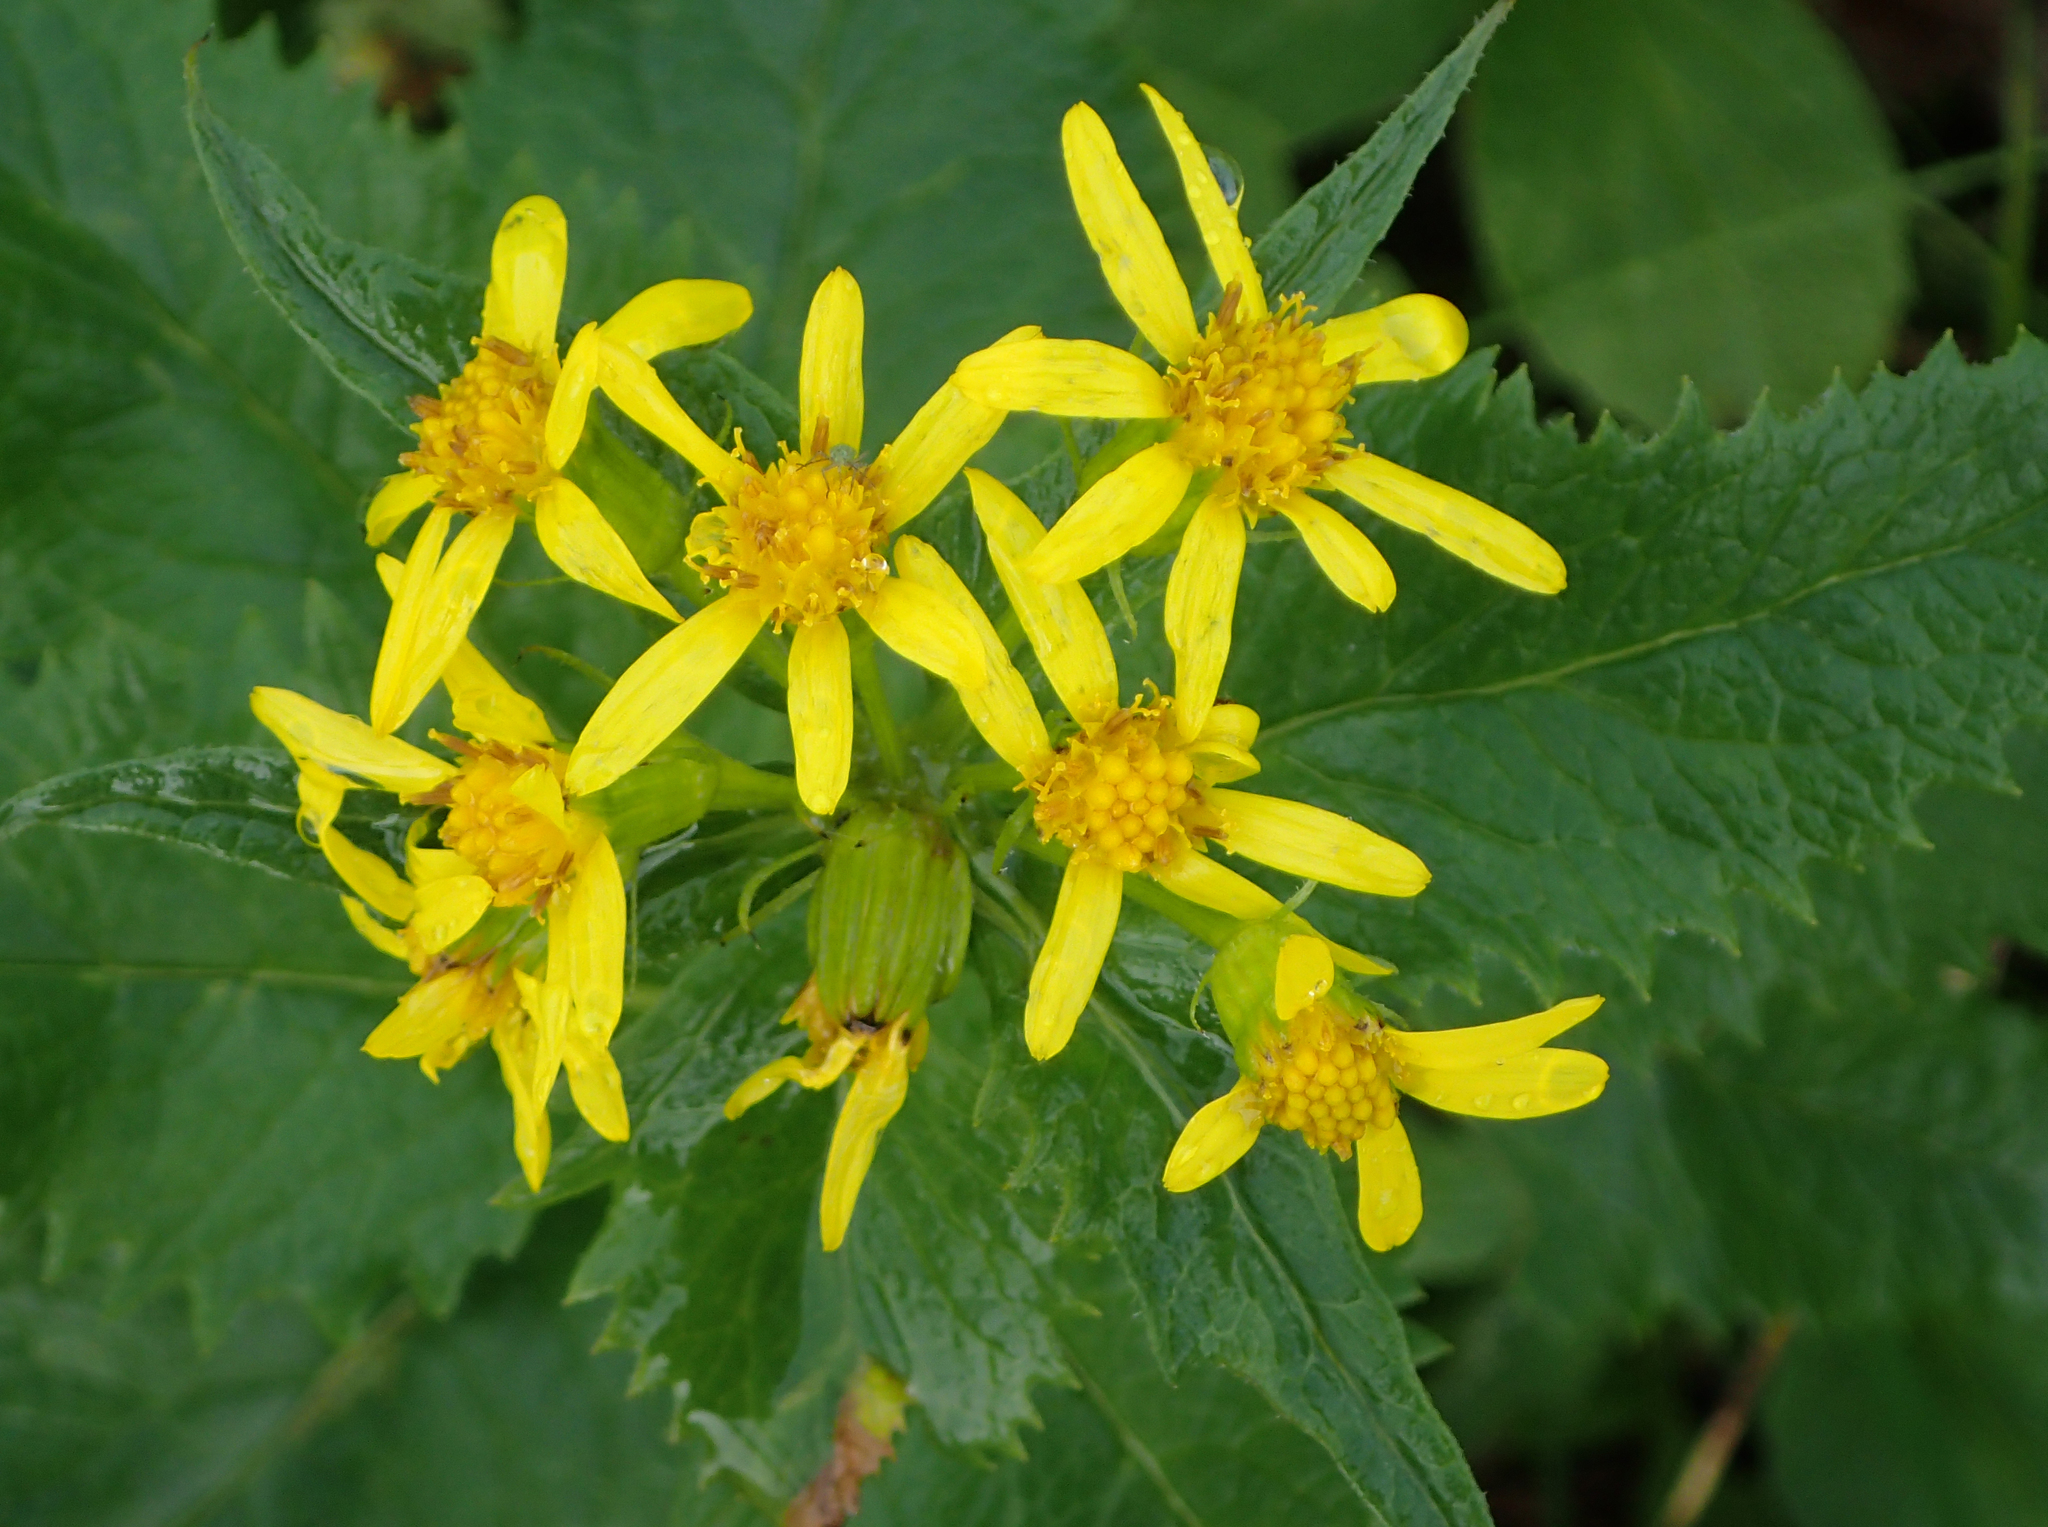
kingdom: Plantae
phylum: Tracheophyta
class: Magnoliopsida
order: Asterales
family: Asteraceae
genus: Senecio
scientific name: Senecio triangularis
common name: Arrowleaf butterweed
